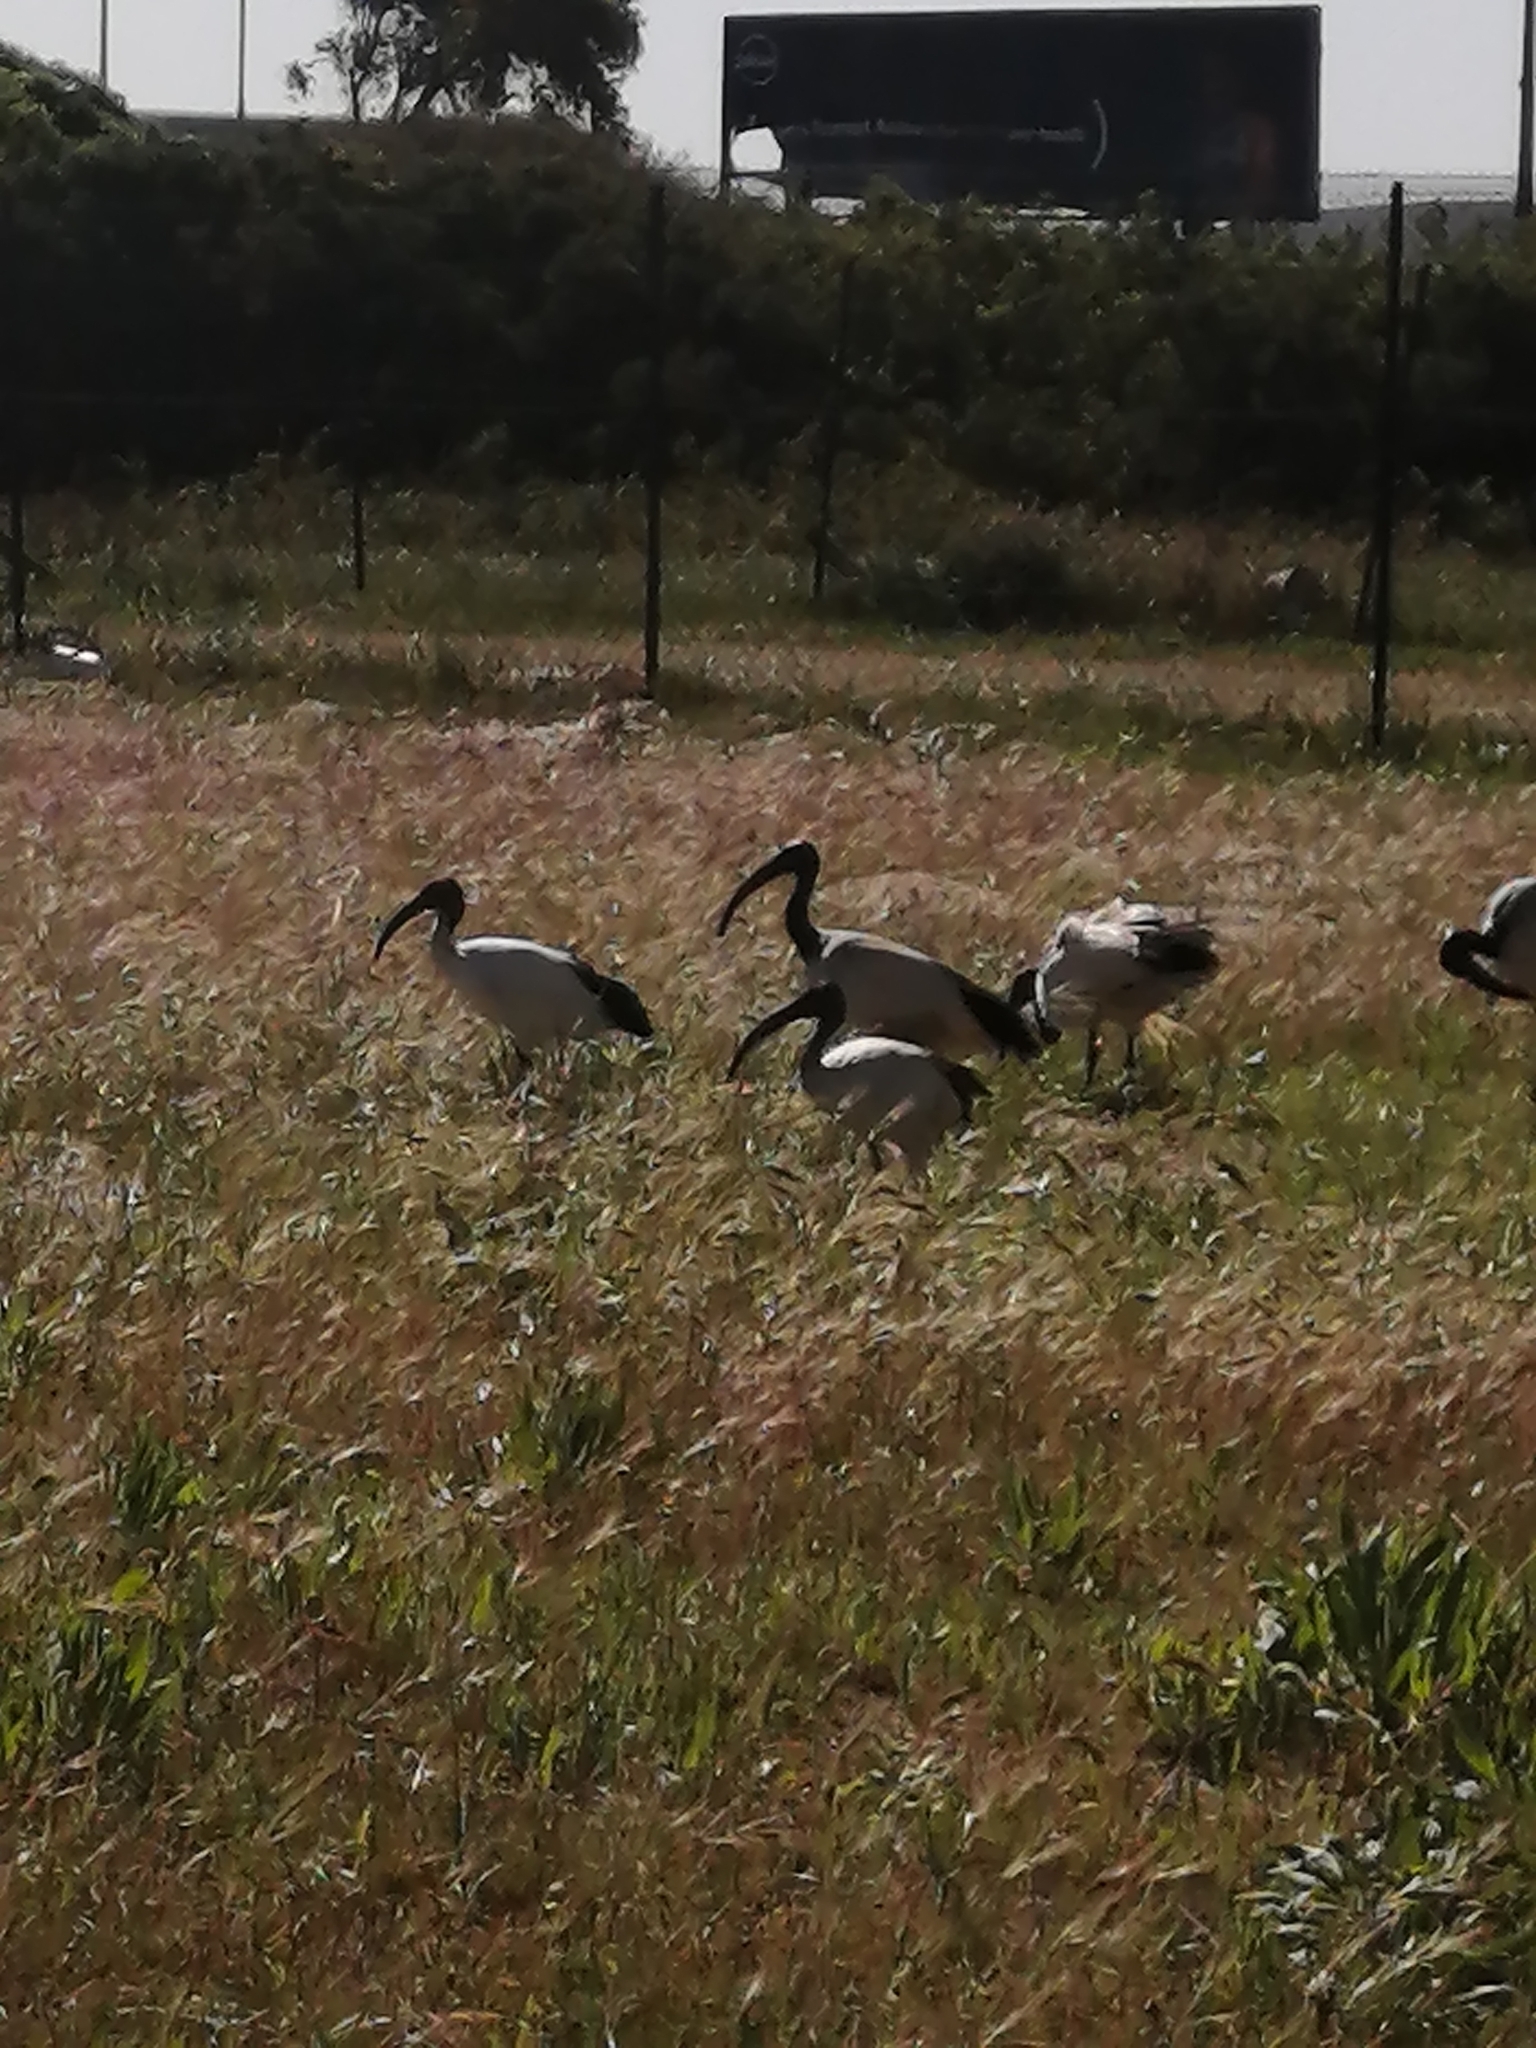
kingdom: Animalia
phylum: Chordata
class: Aves
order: Pelecaniformes
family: Threskiornithidae
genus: Threskiornis
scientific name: Threskiornis aethiopicus
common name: Sacred ibis
